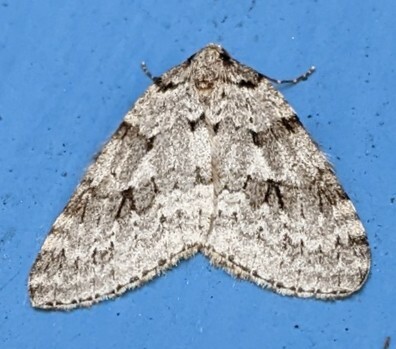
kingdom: Animalia
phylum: Arthropoda
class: Insecta
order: Lepidoptera
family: Geometridae
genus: Epirrita
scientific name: Epirrita autumnata
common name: Autumnal moth
